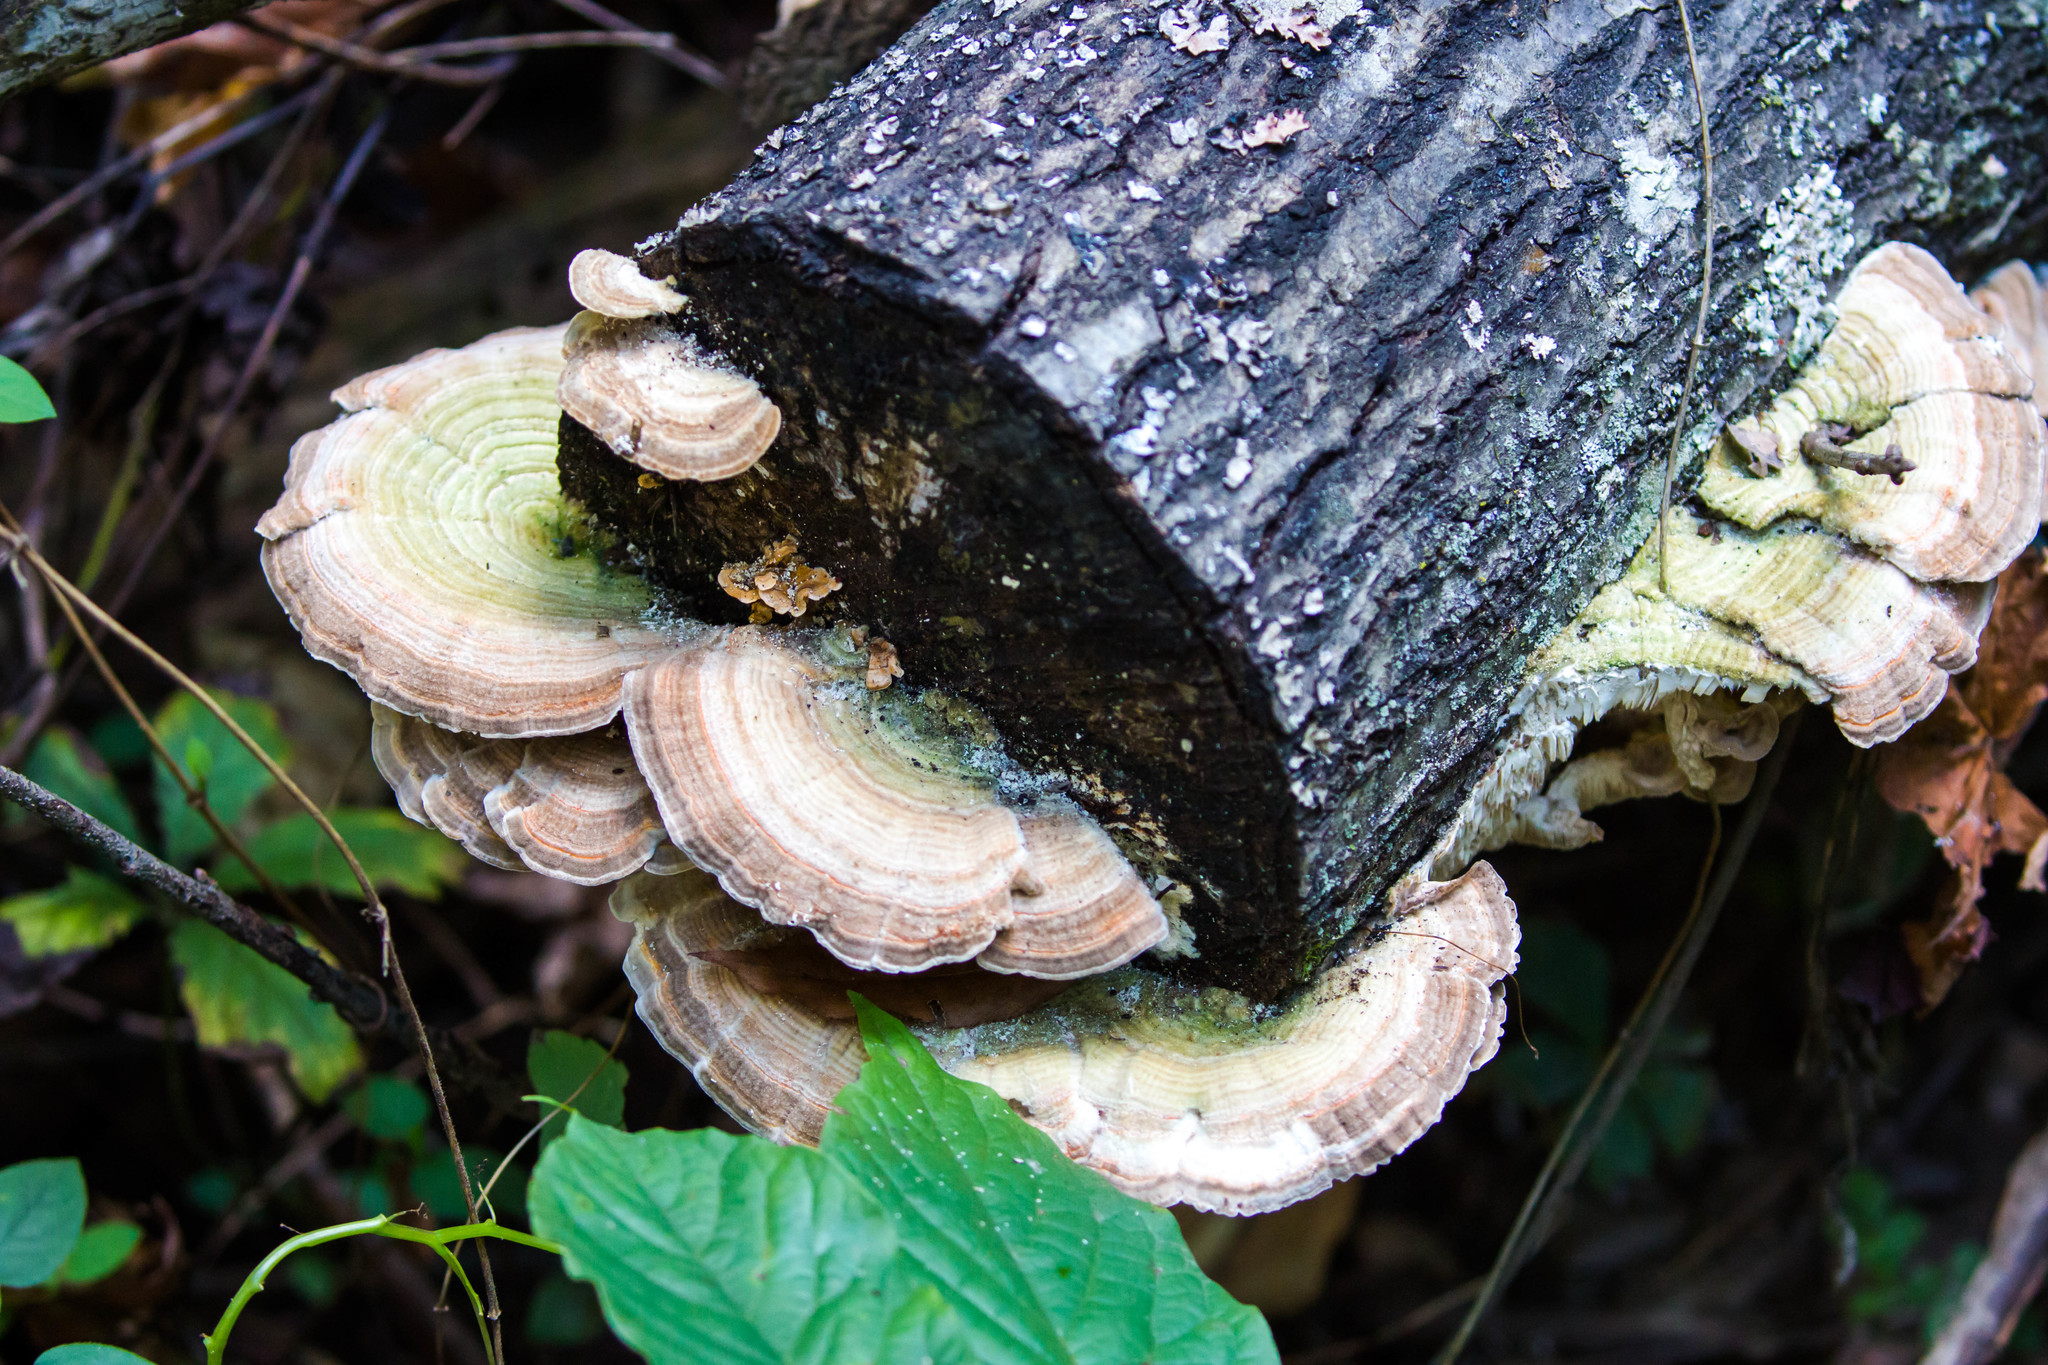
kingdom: Fungi
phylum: Basidiomycota
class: Agaricomycetes
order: Polyporales
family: Polyporaceae
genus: Lenzites
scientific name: Lenzites betulinus
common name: Birch mazegill
